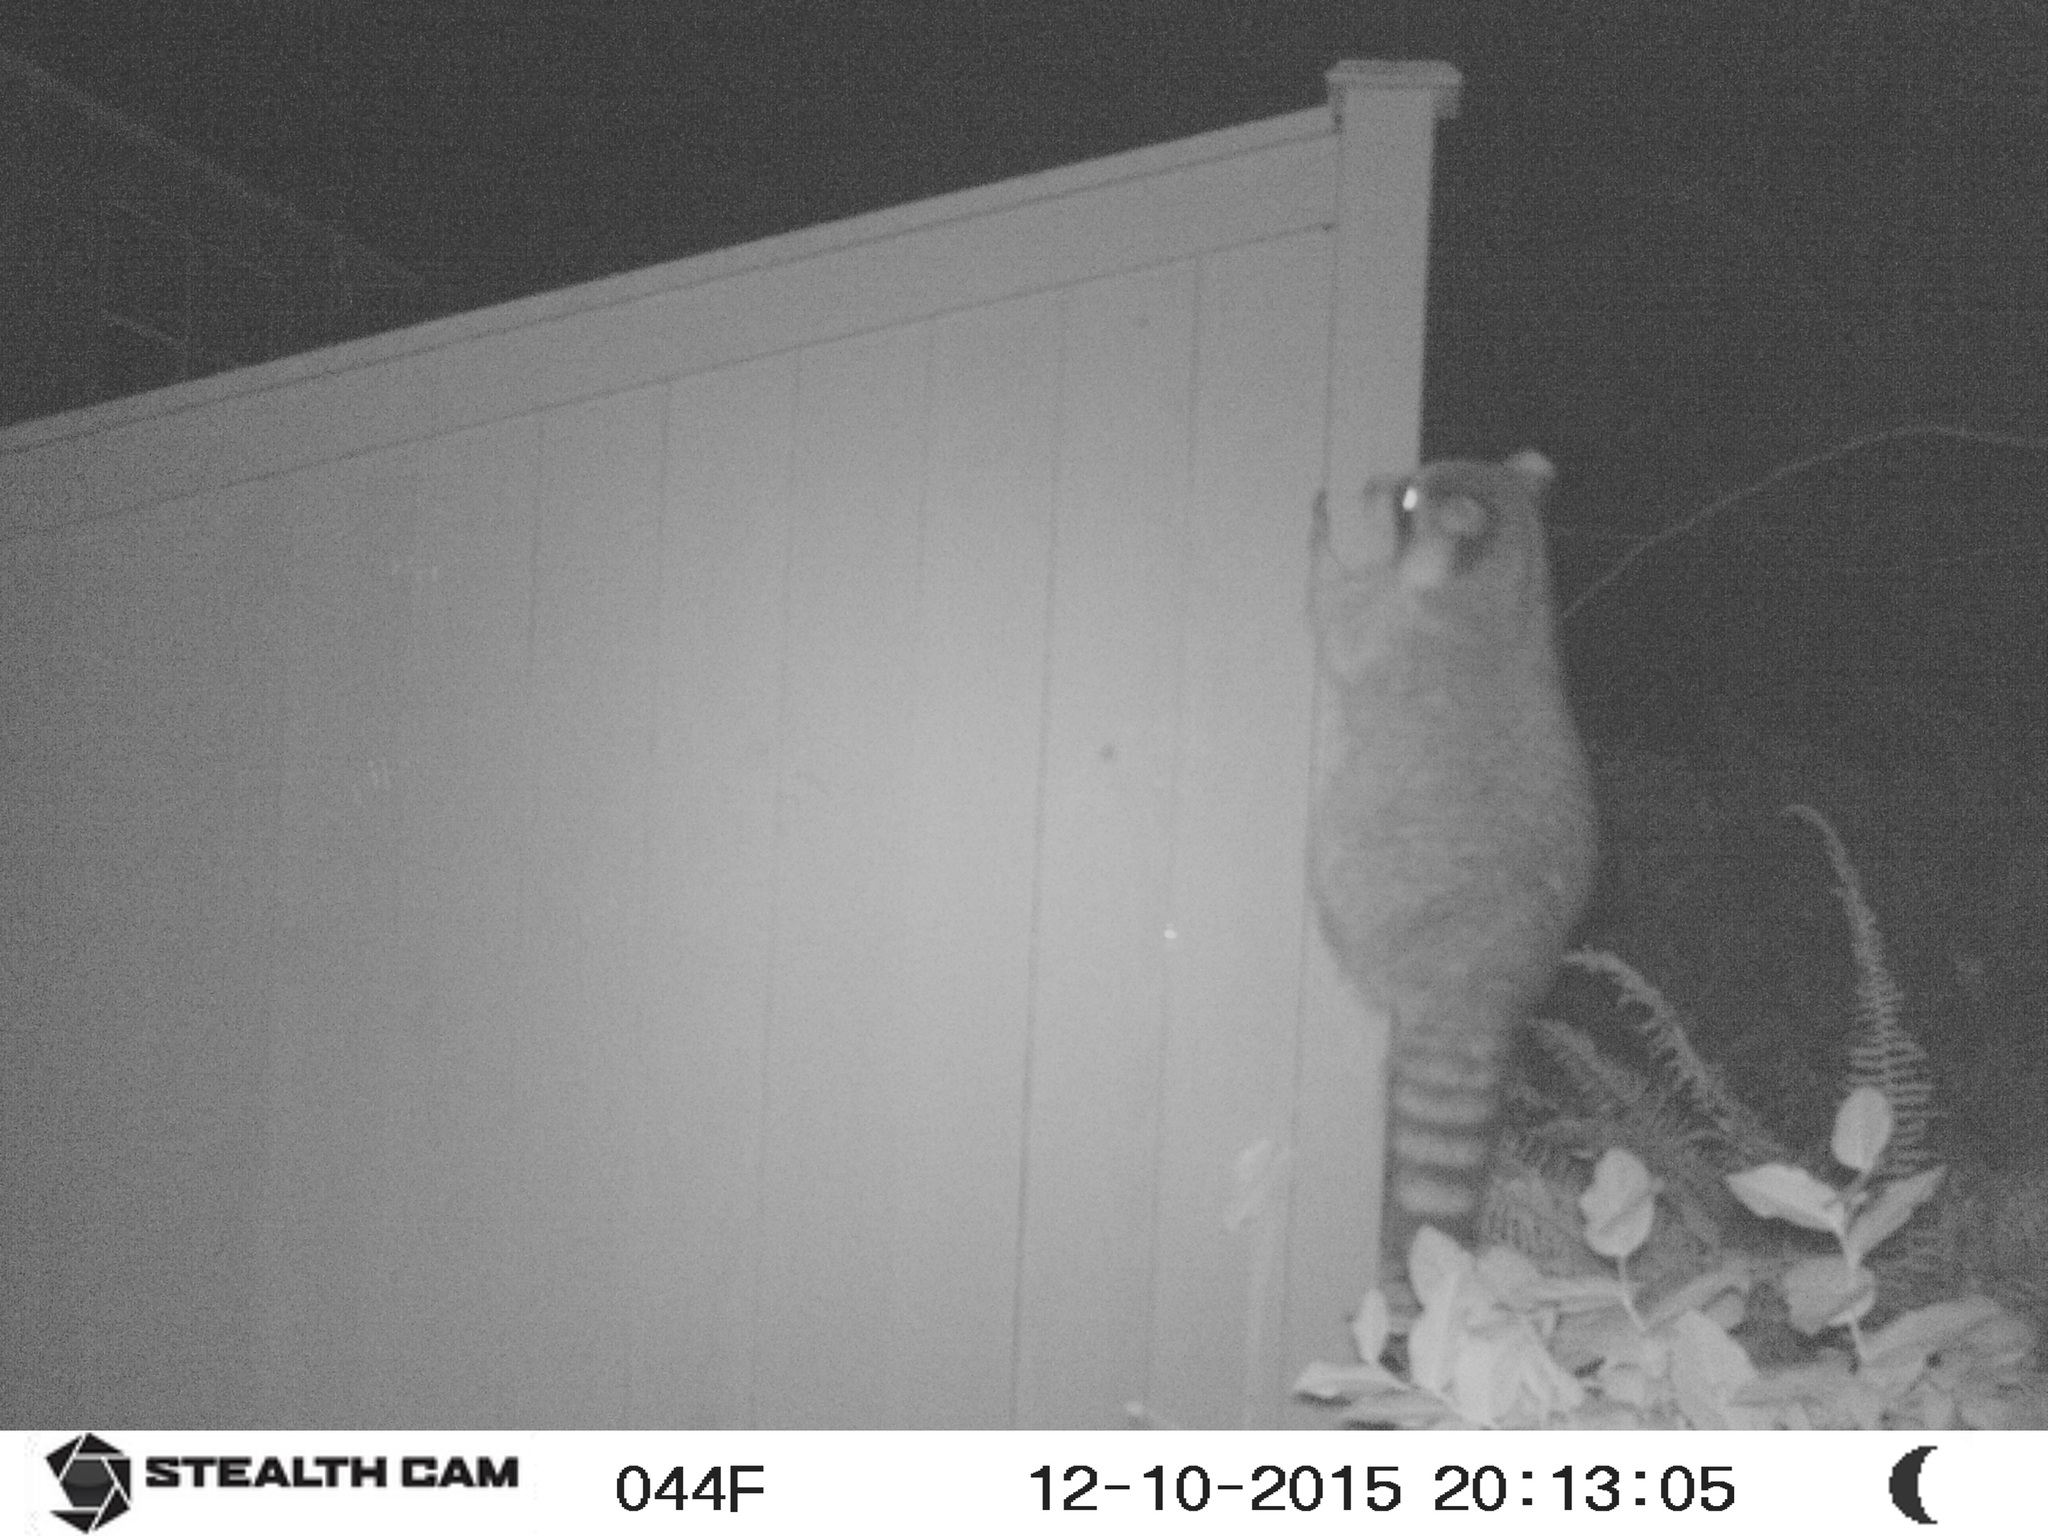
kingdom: Animalia
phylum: Chordata
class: Mammalia
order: Carnivora
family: Procyonidae
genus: Procyon
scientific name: Procyon lotor
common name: Raccoon
